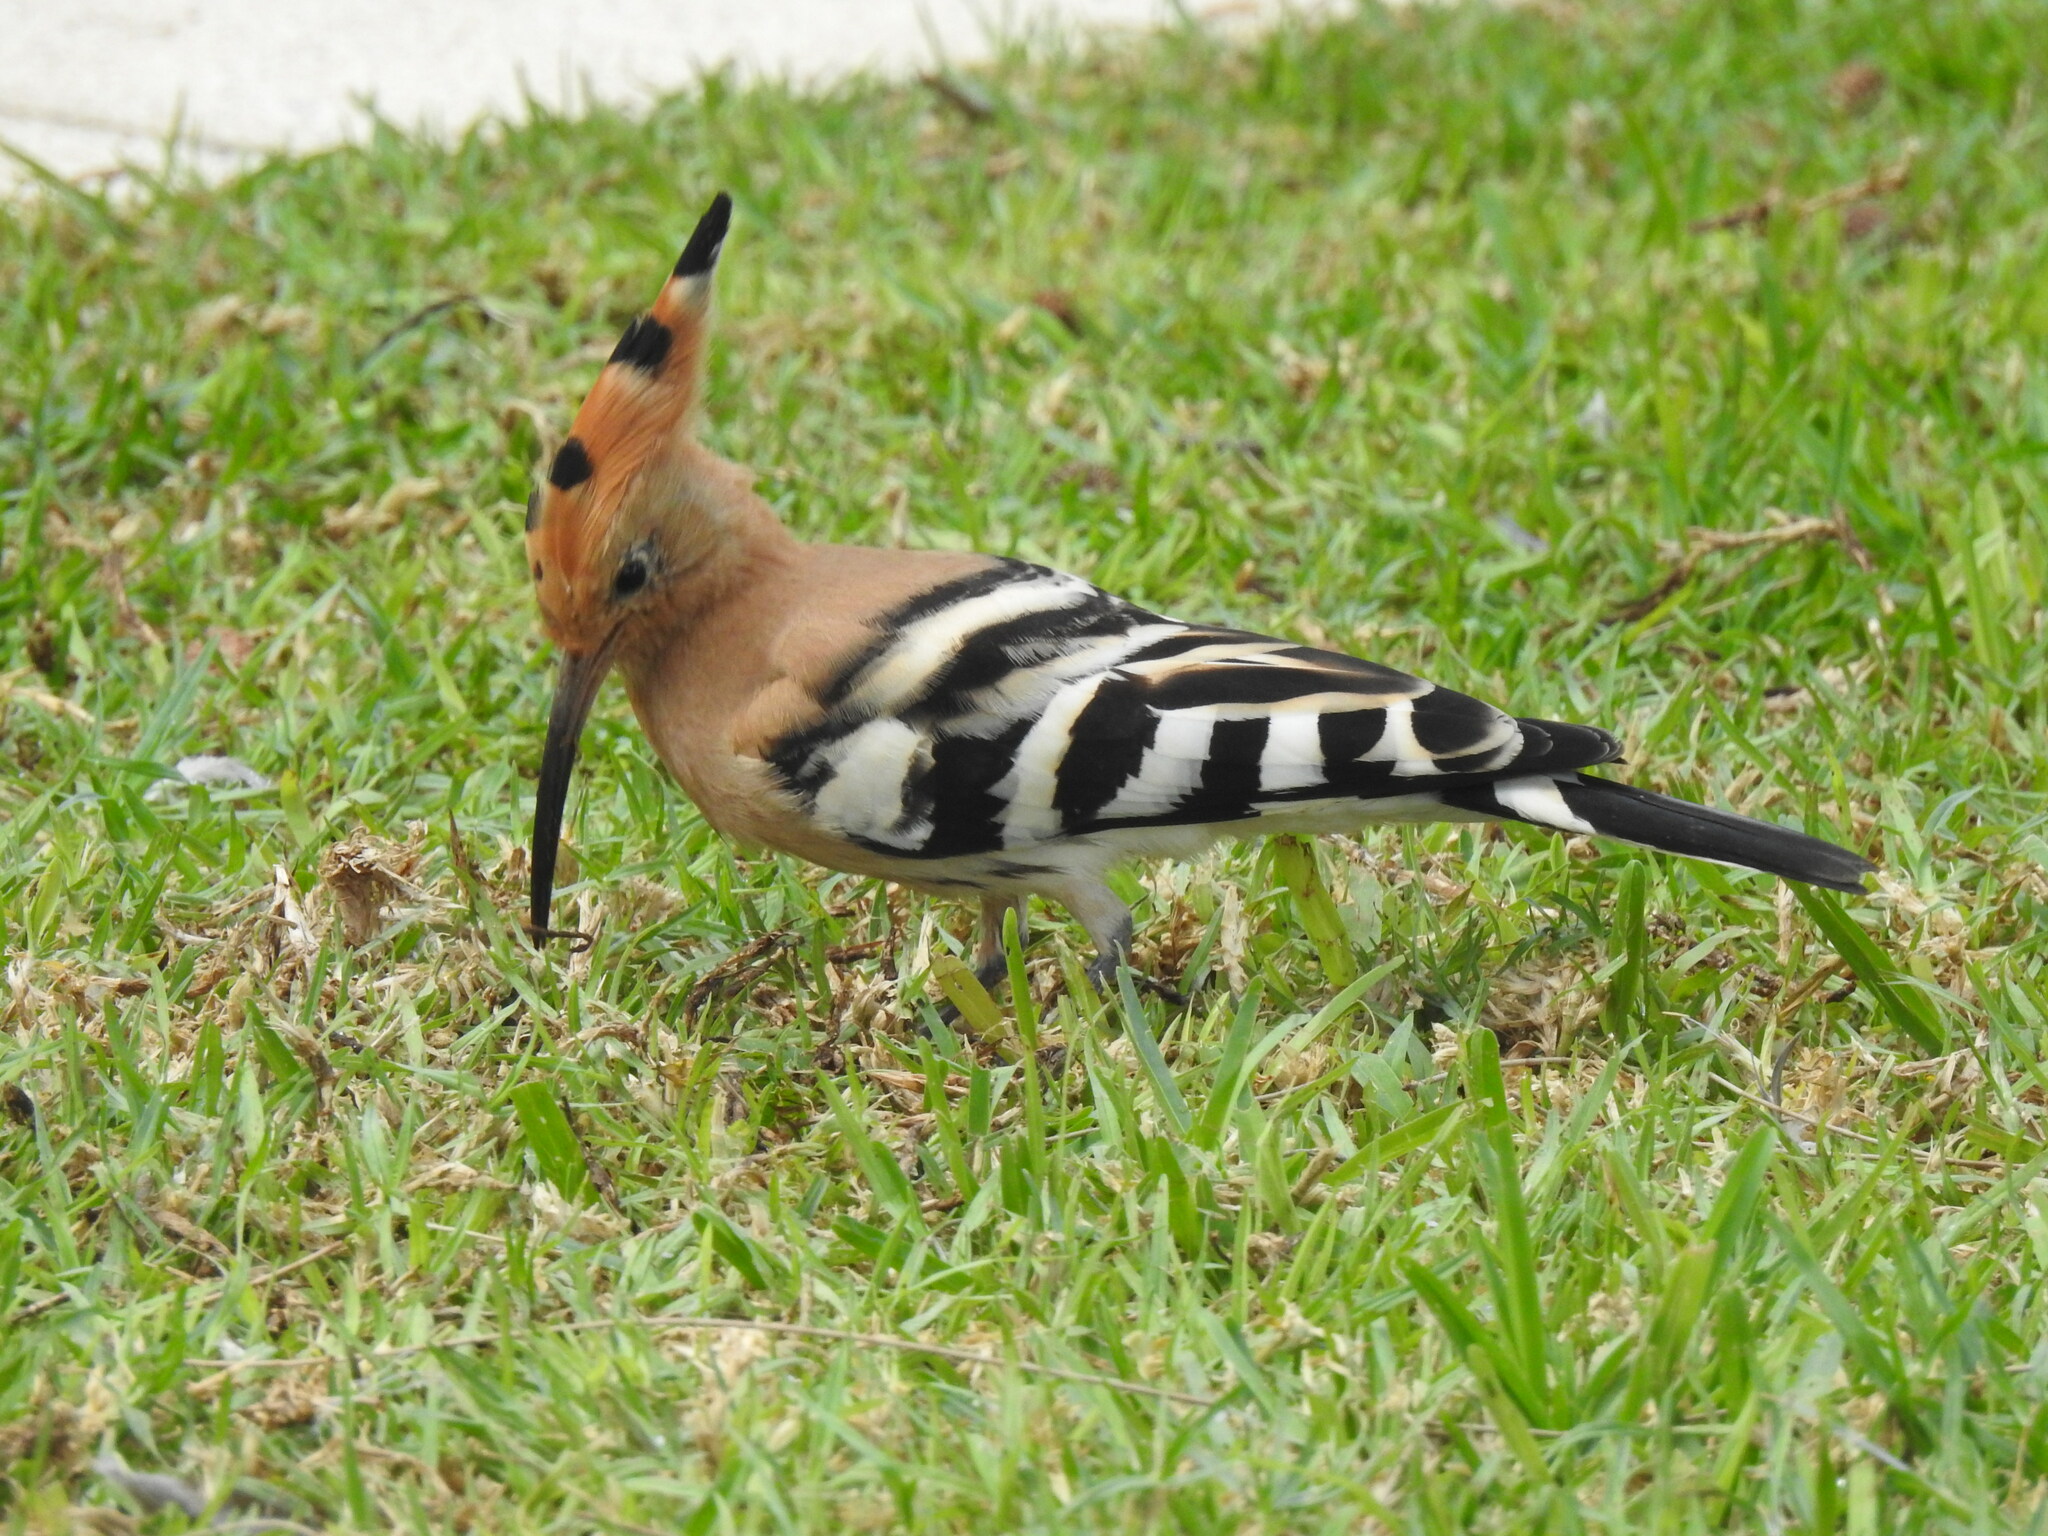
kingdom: Animalia
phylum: Chordata
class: Aves
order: Bucerotiformes
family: Upupidae
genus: Upupa
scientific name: Upupa epops
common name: Eurasian hoopoe
